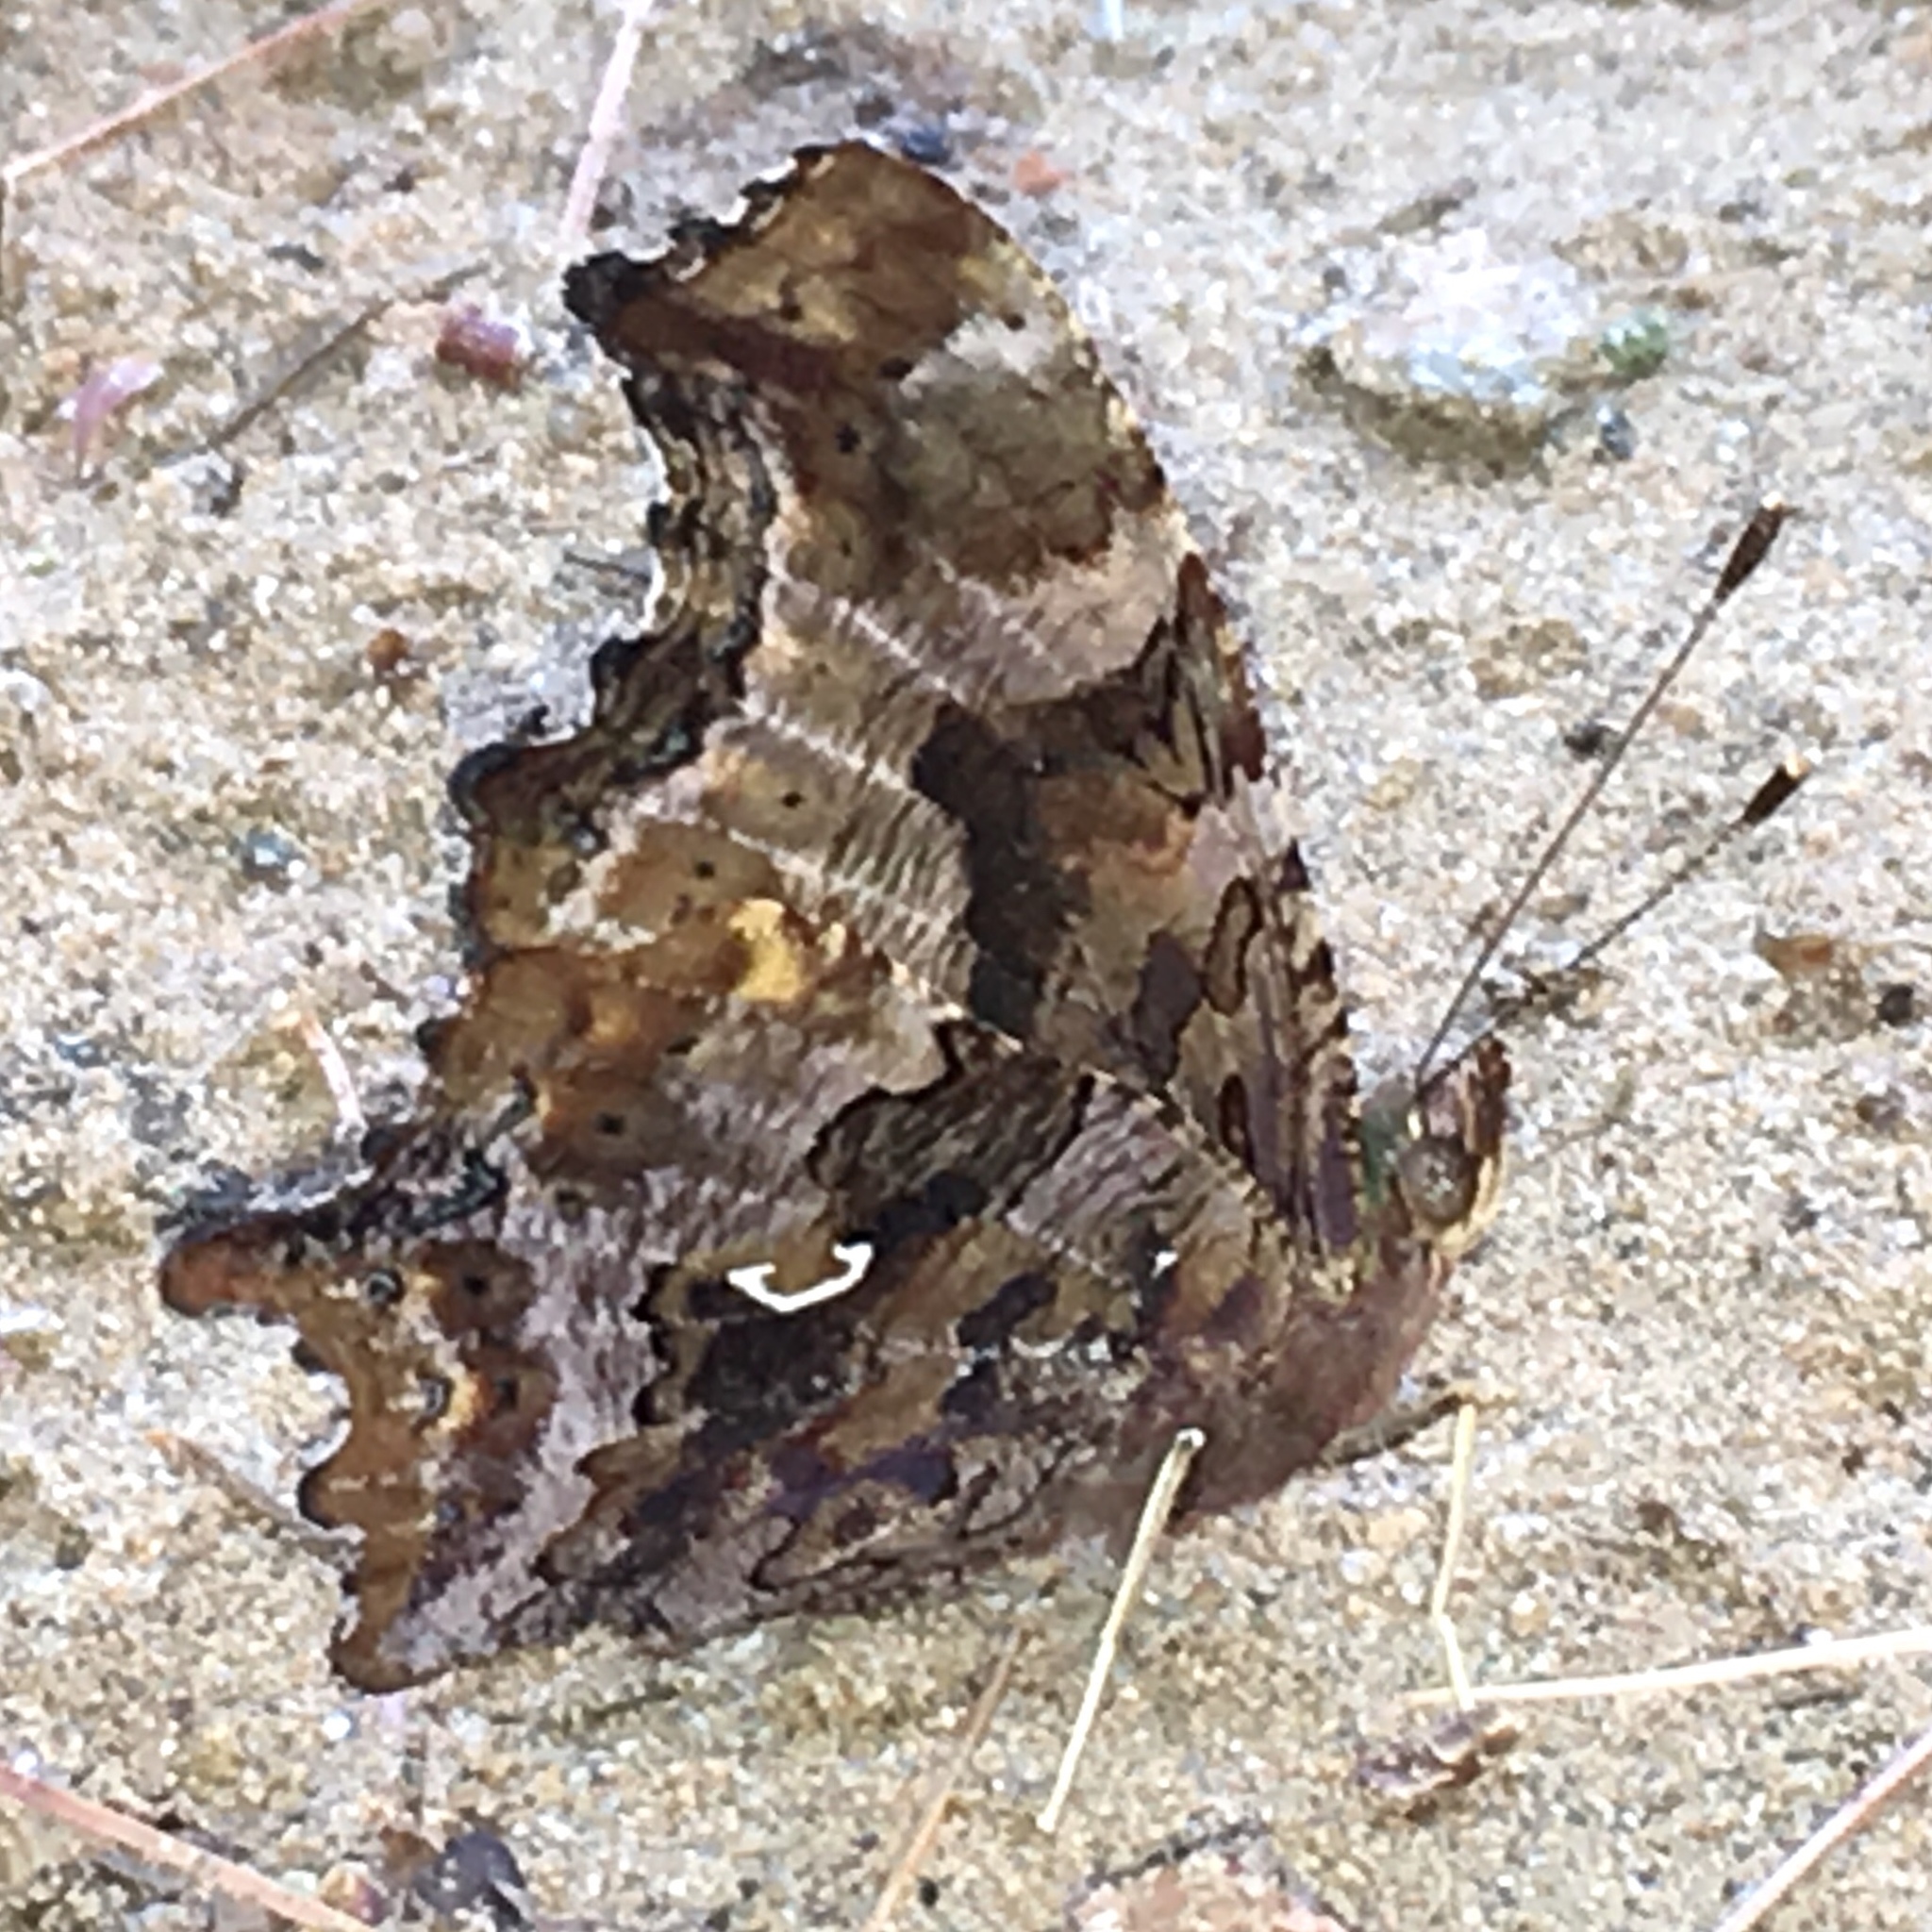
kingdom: Animalia
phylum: Arthropoda
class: Insecta
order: Lepidoptera
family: Nymphalidae
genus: Polygonia
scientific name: Polygonia comma
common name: Eastern comma
